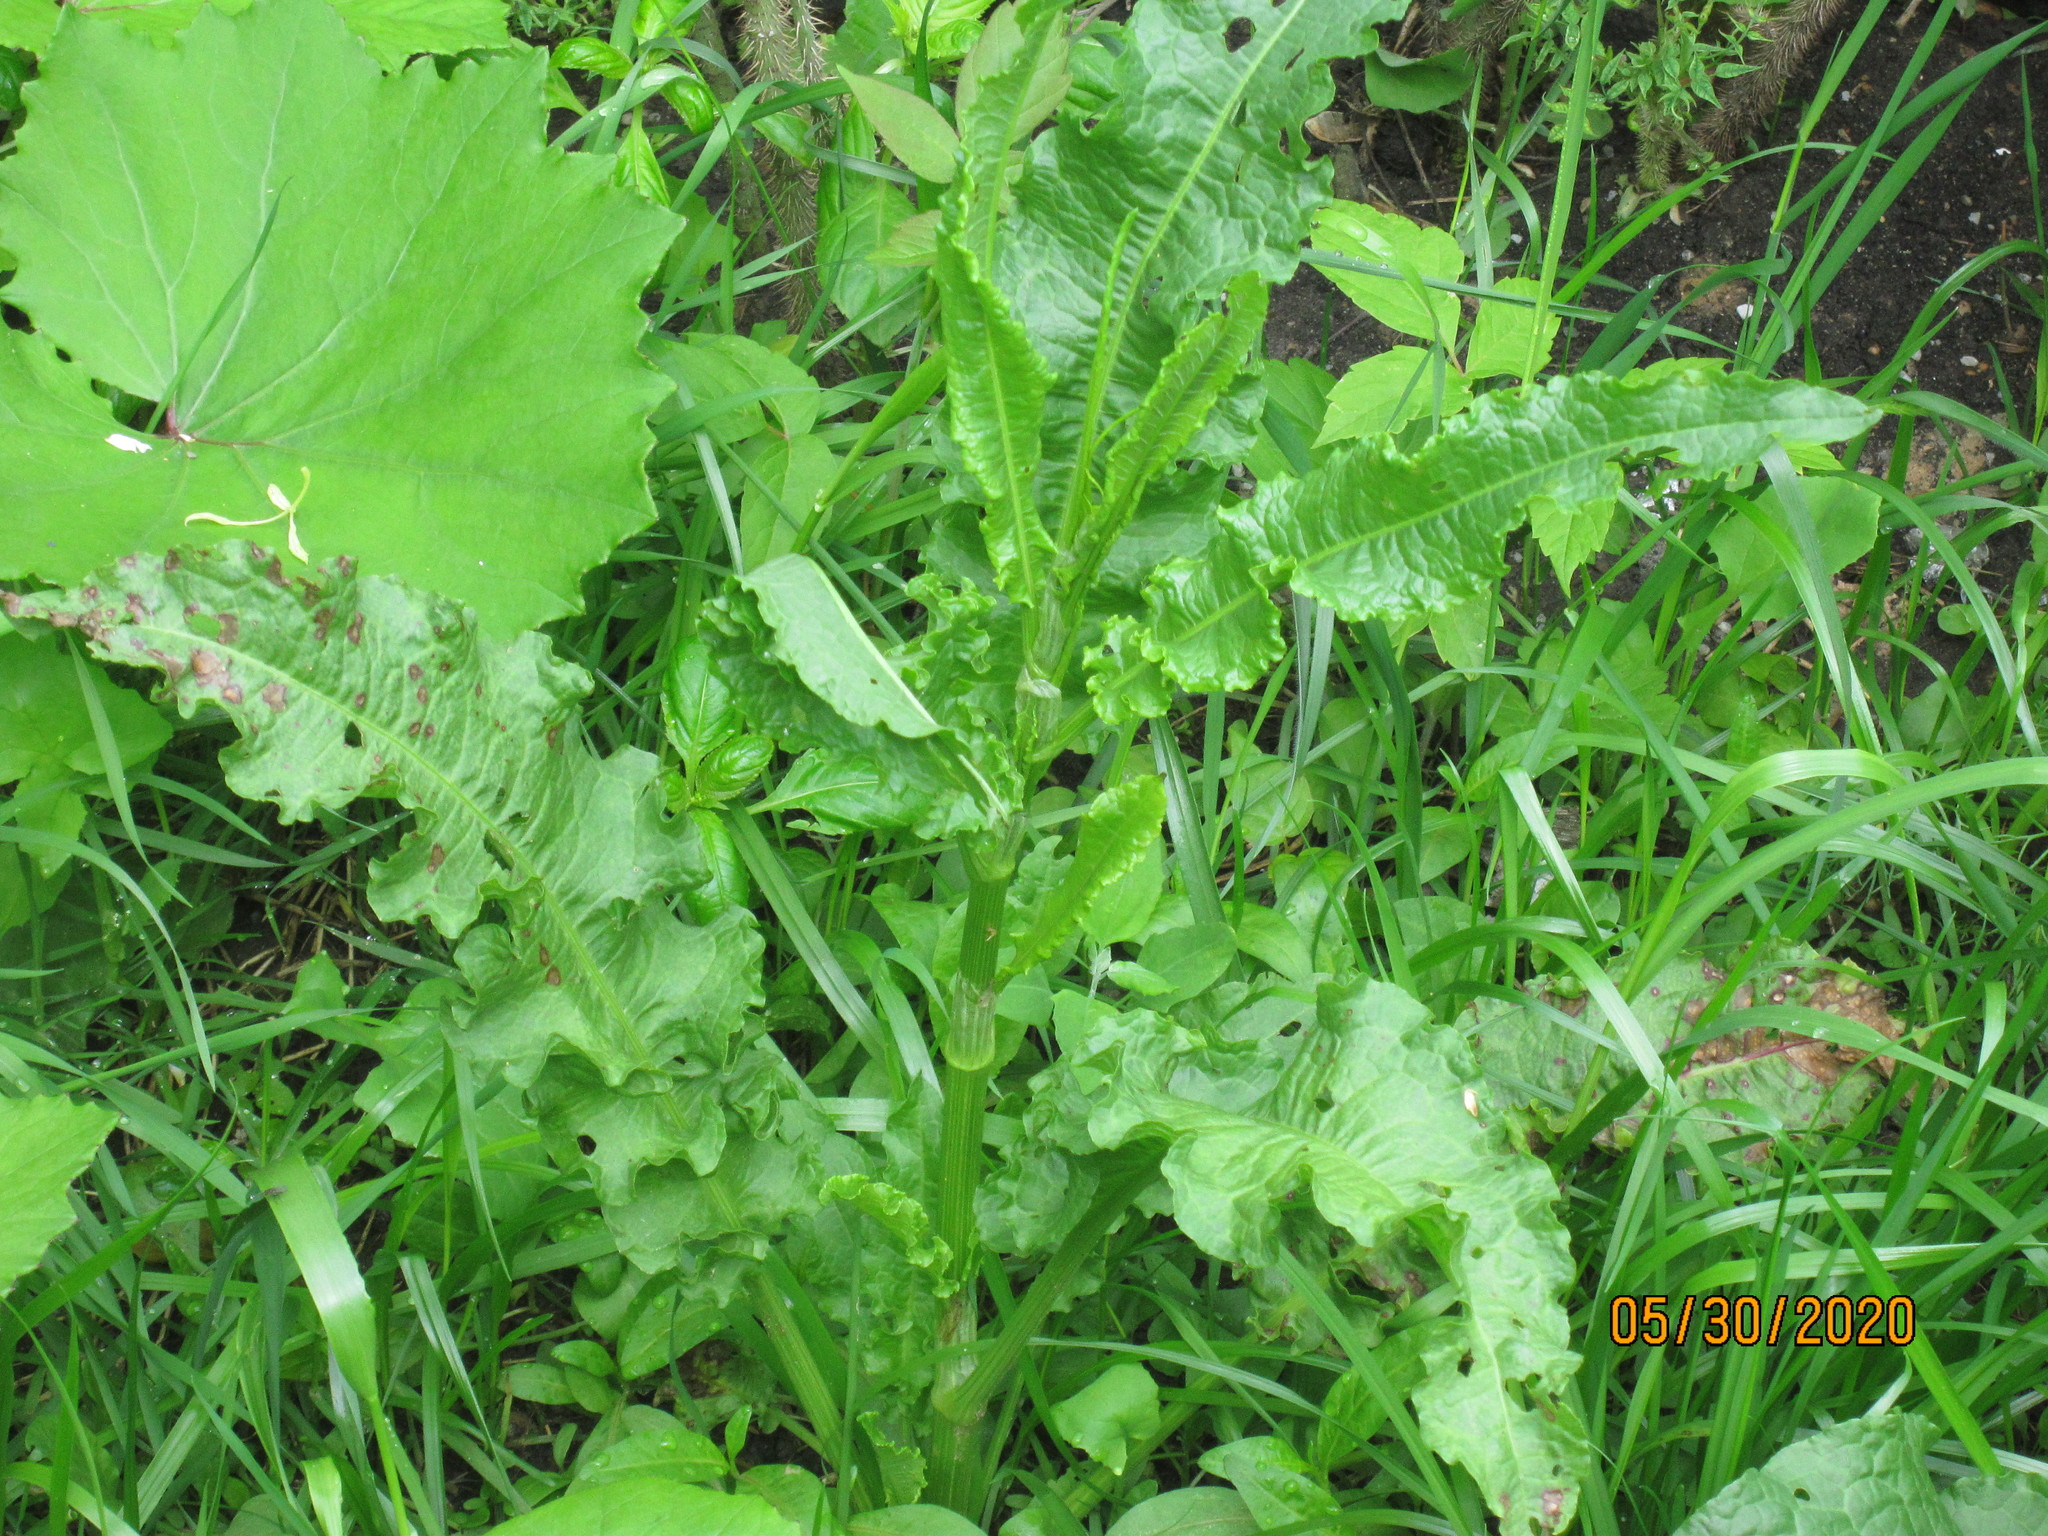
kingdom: Plantae
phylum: Tracheophyta
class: Magnoliopsida
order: Caryophyllales
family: Polygonaceae
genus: Rumex
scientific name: Rumex crispus
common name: Curled dock
